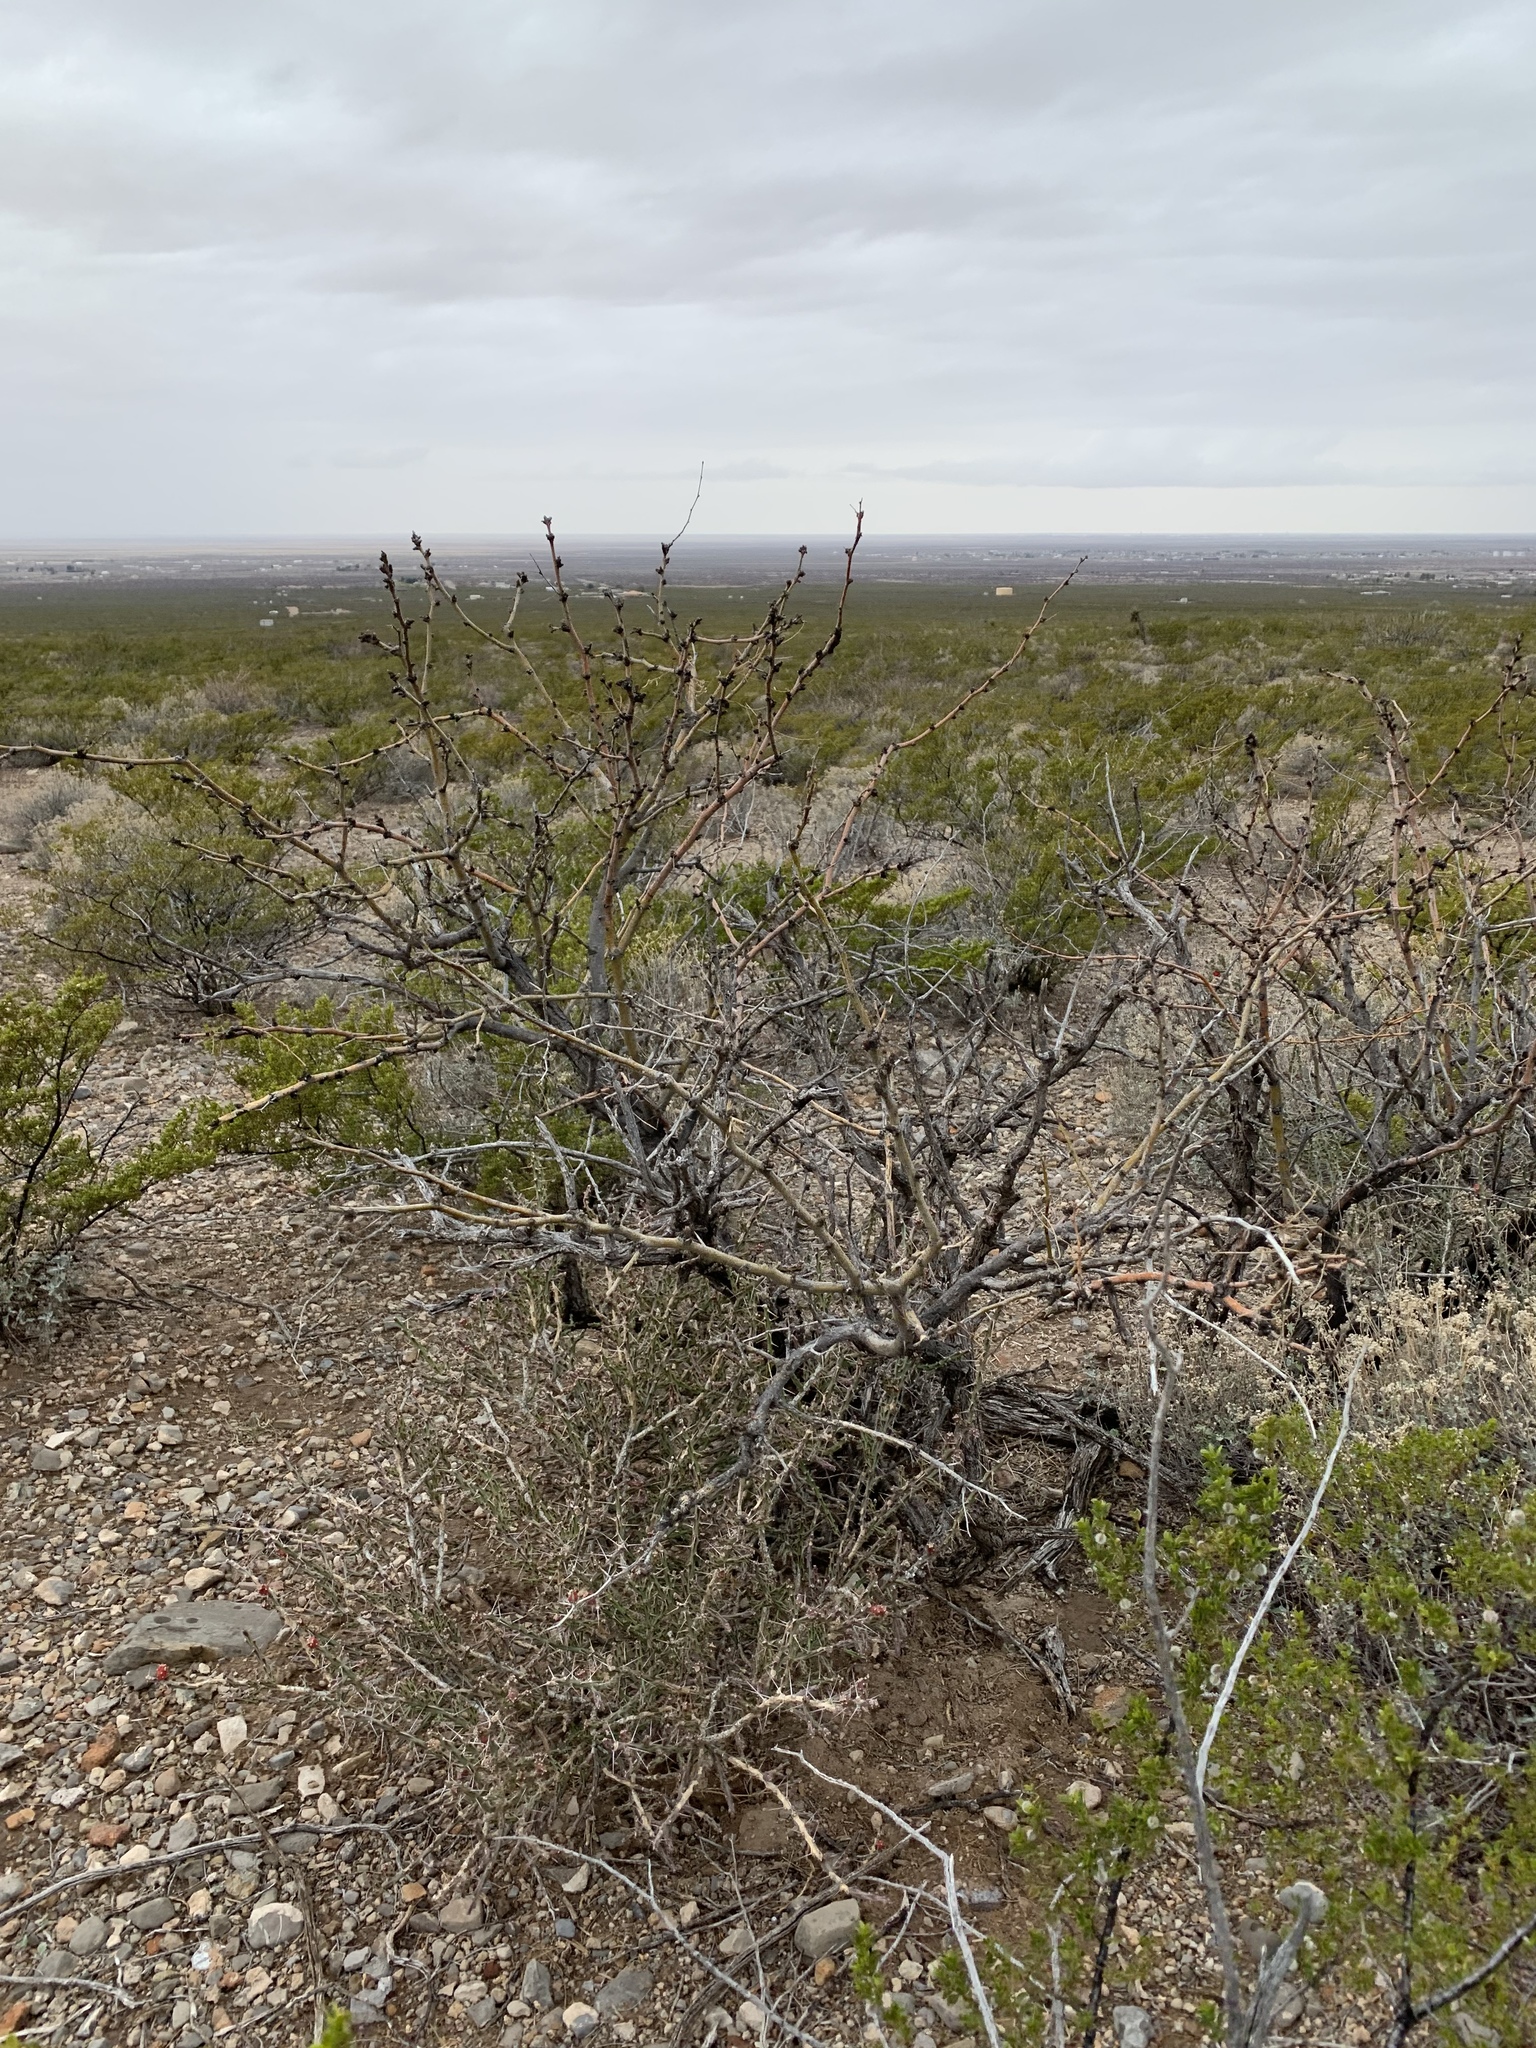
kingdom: Plantae
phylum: Tracheophyta
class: Magnoliopsida
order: Fabales
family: Fabaceae
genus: Prosopis
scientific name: Prosopis glandulosa
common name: Honey mesquite
